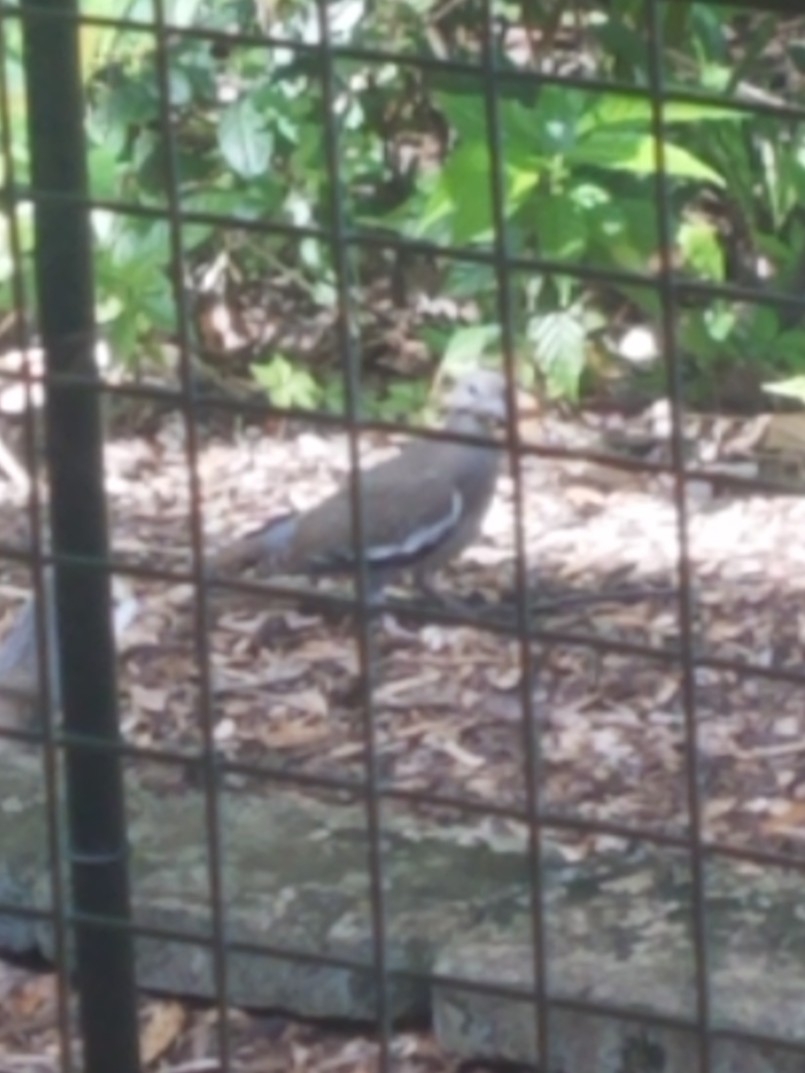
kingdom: Animalia
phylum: Chordata
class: Aves
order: Columbiformes
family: Columbidae
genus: Zenaida
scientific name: Zenaida asiatica
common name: White-winged dove
